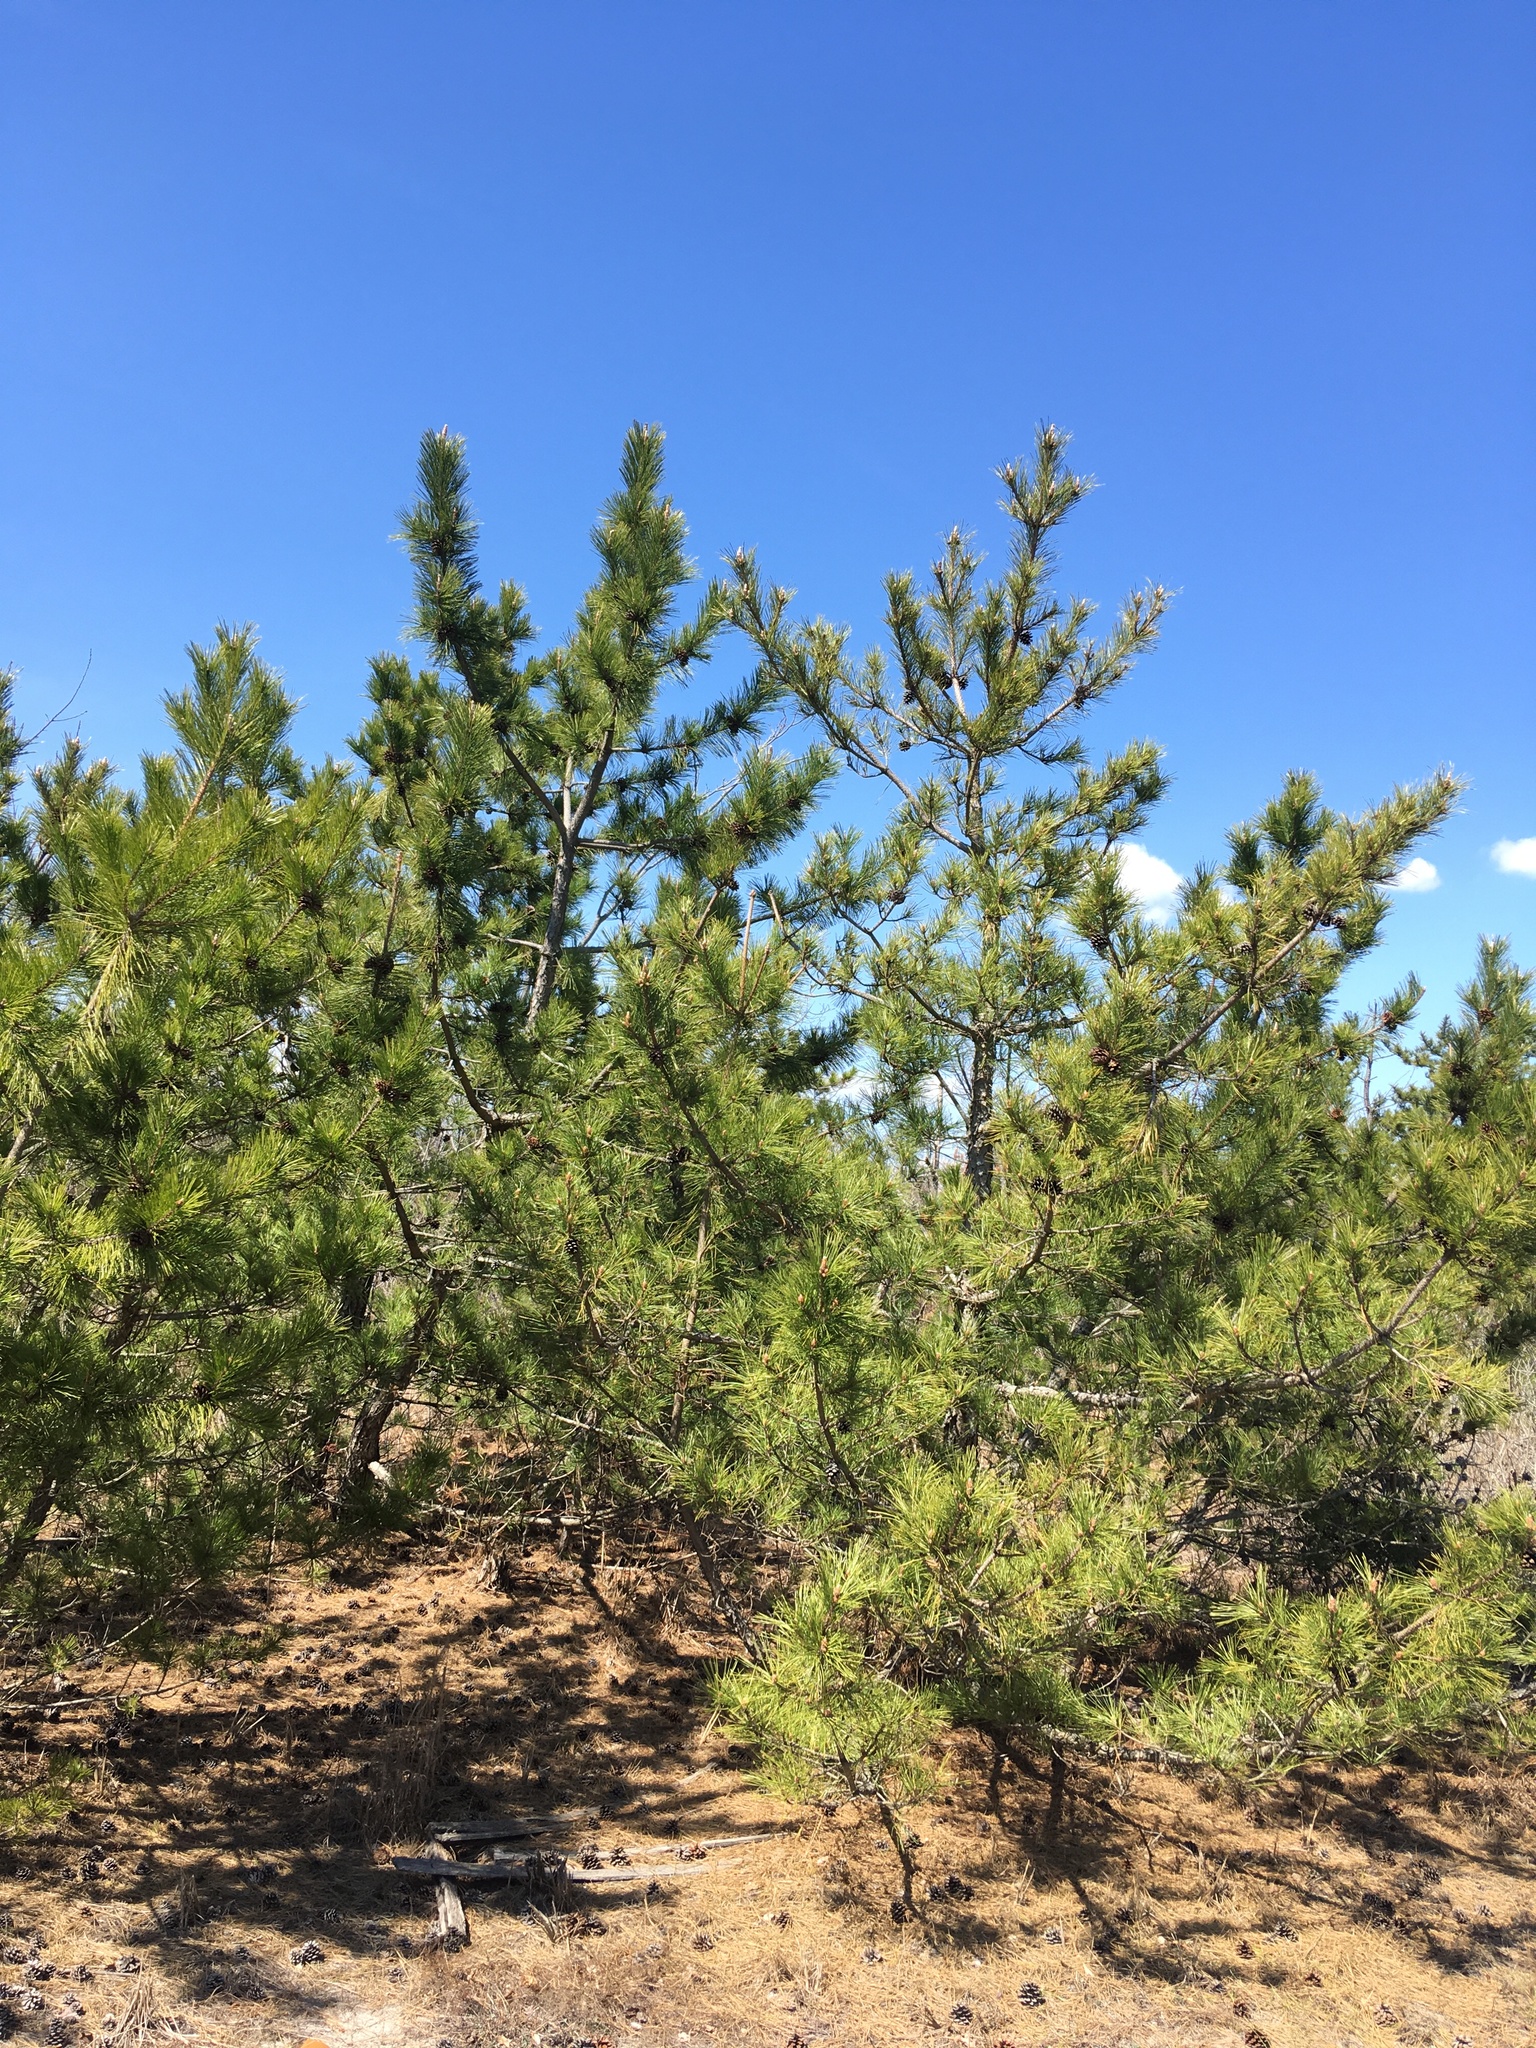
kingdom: Plantae
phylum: Tracheophyta
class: Pinopsida
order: Pinales
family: Pinaceae
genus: Pinus
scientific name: Pinus resinosa
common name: Norway pine
